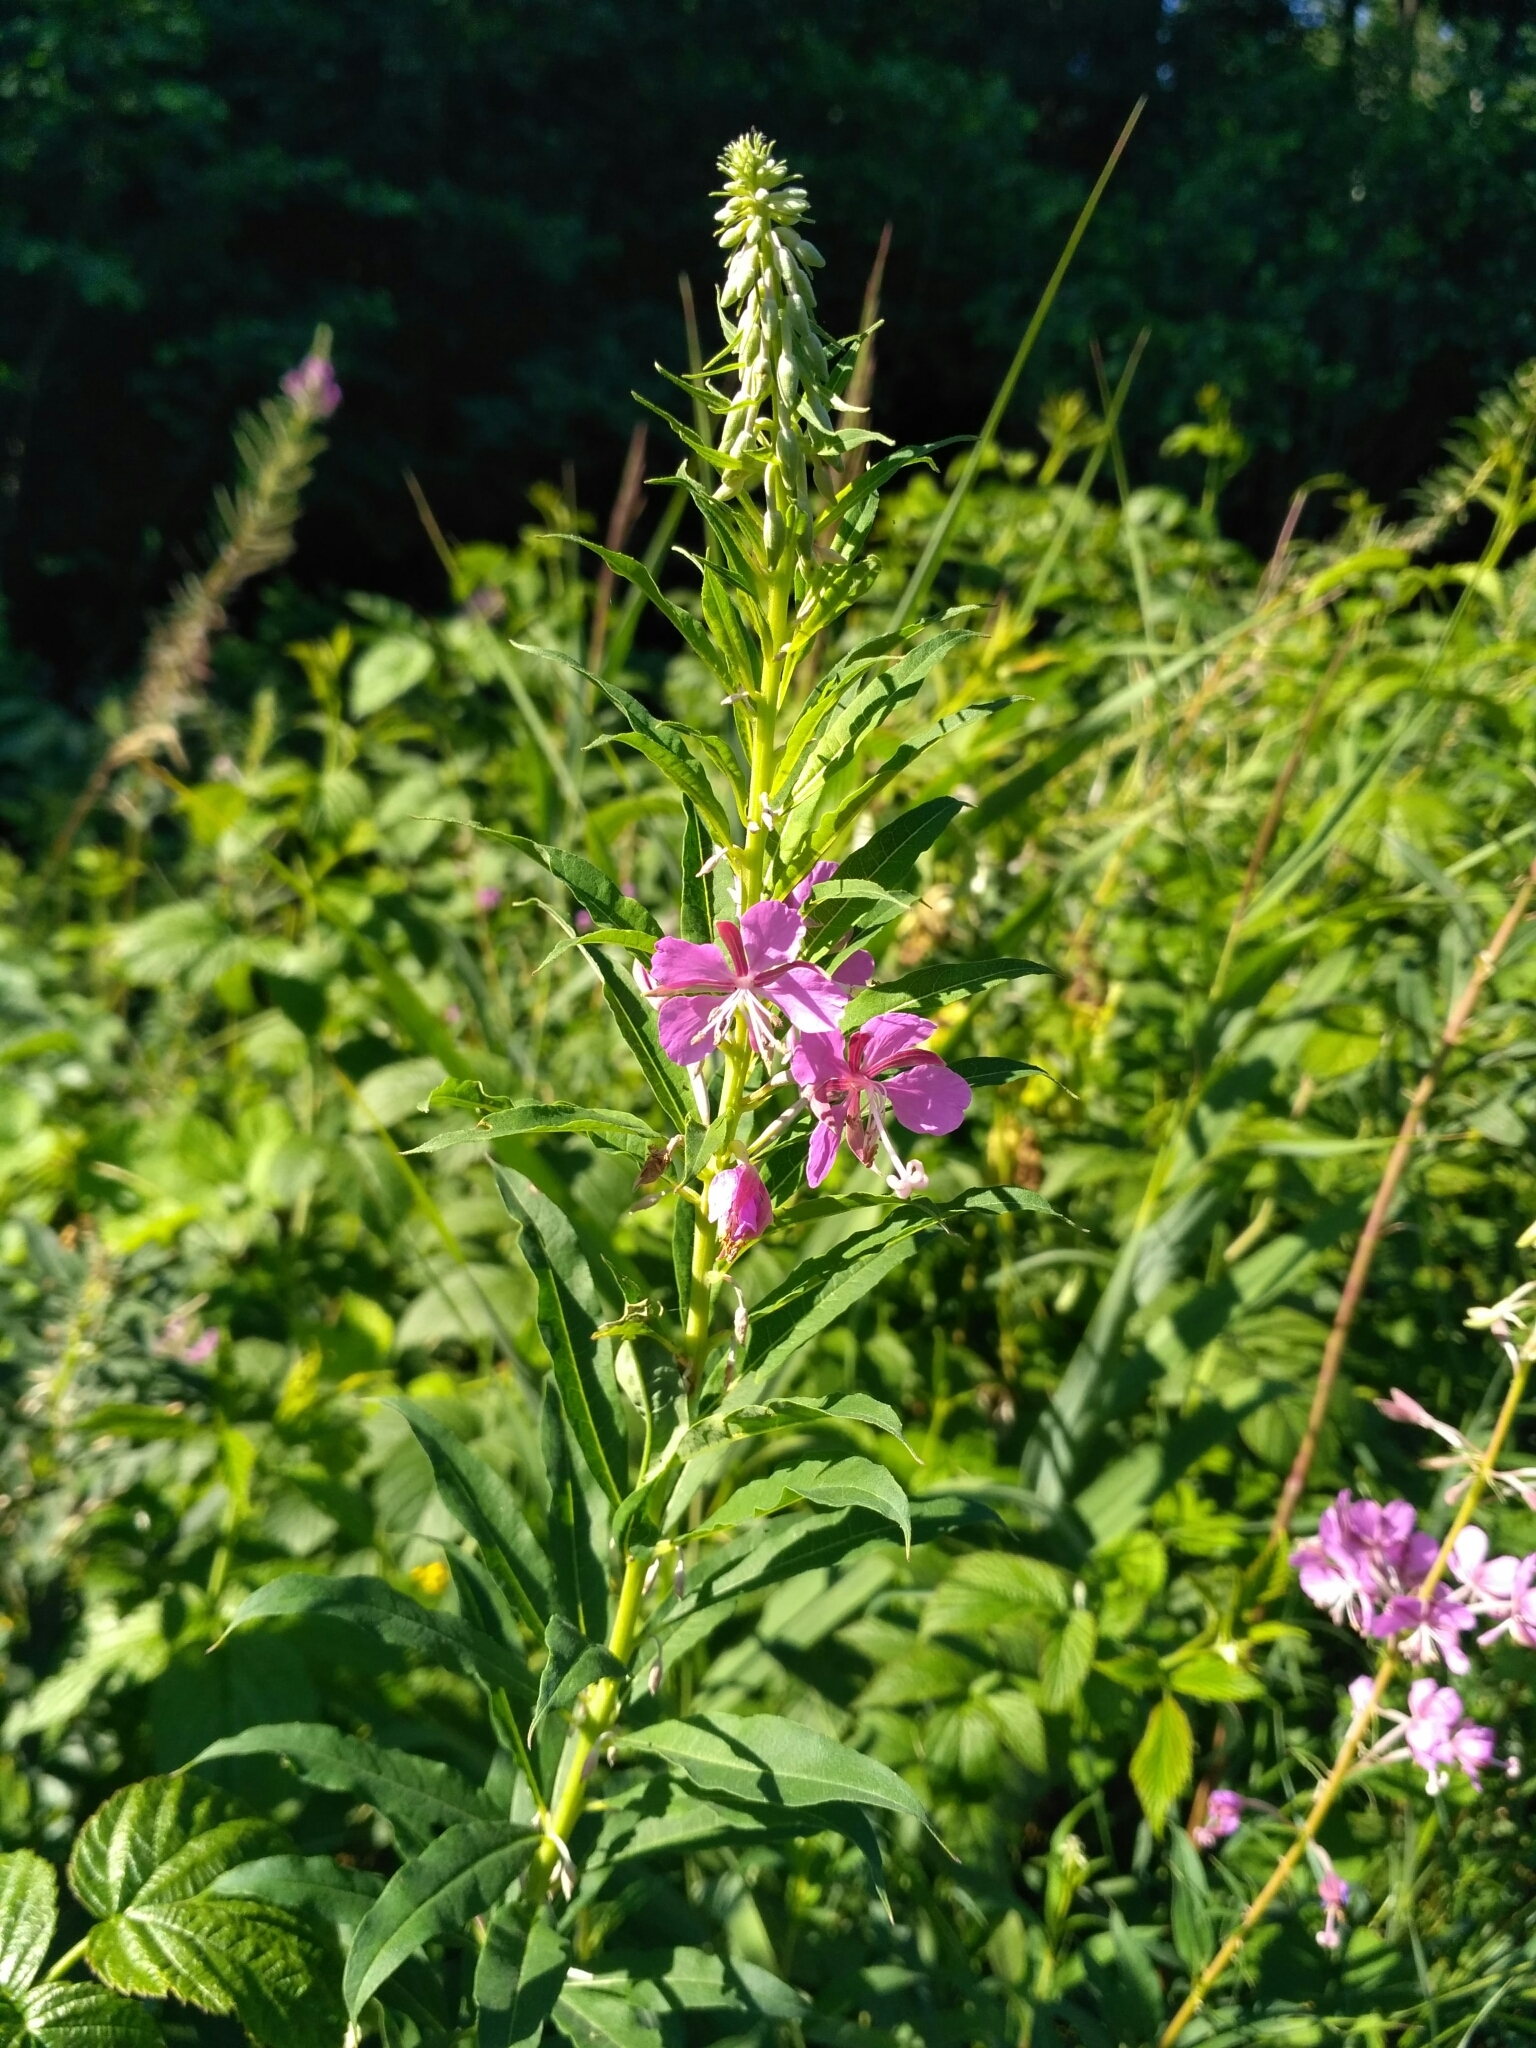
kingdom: Plantae
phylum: Tracheophyta
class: Magnoliopsida
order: Myrtales
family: Onagraceae
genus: Chamaenerion
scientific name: Chamaenerion angustifolium
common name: Fireweed
